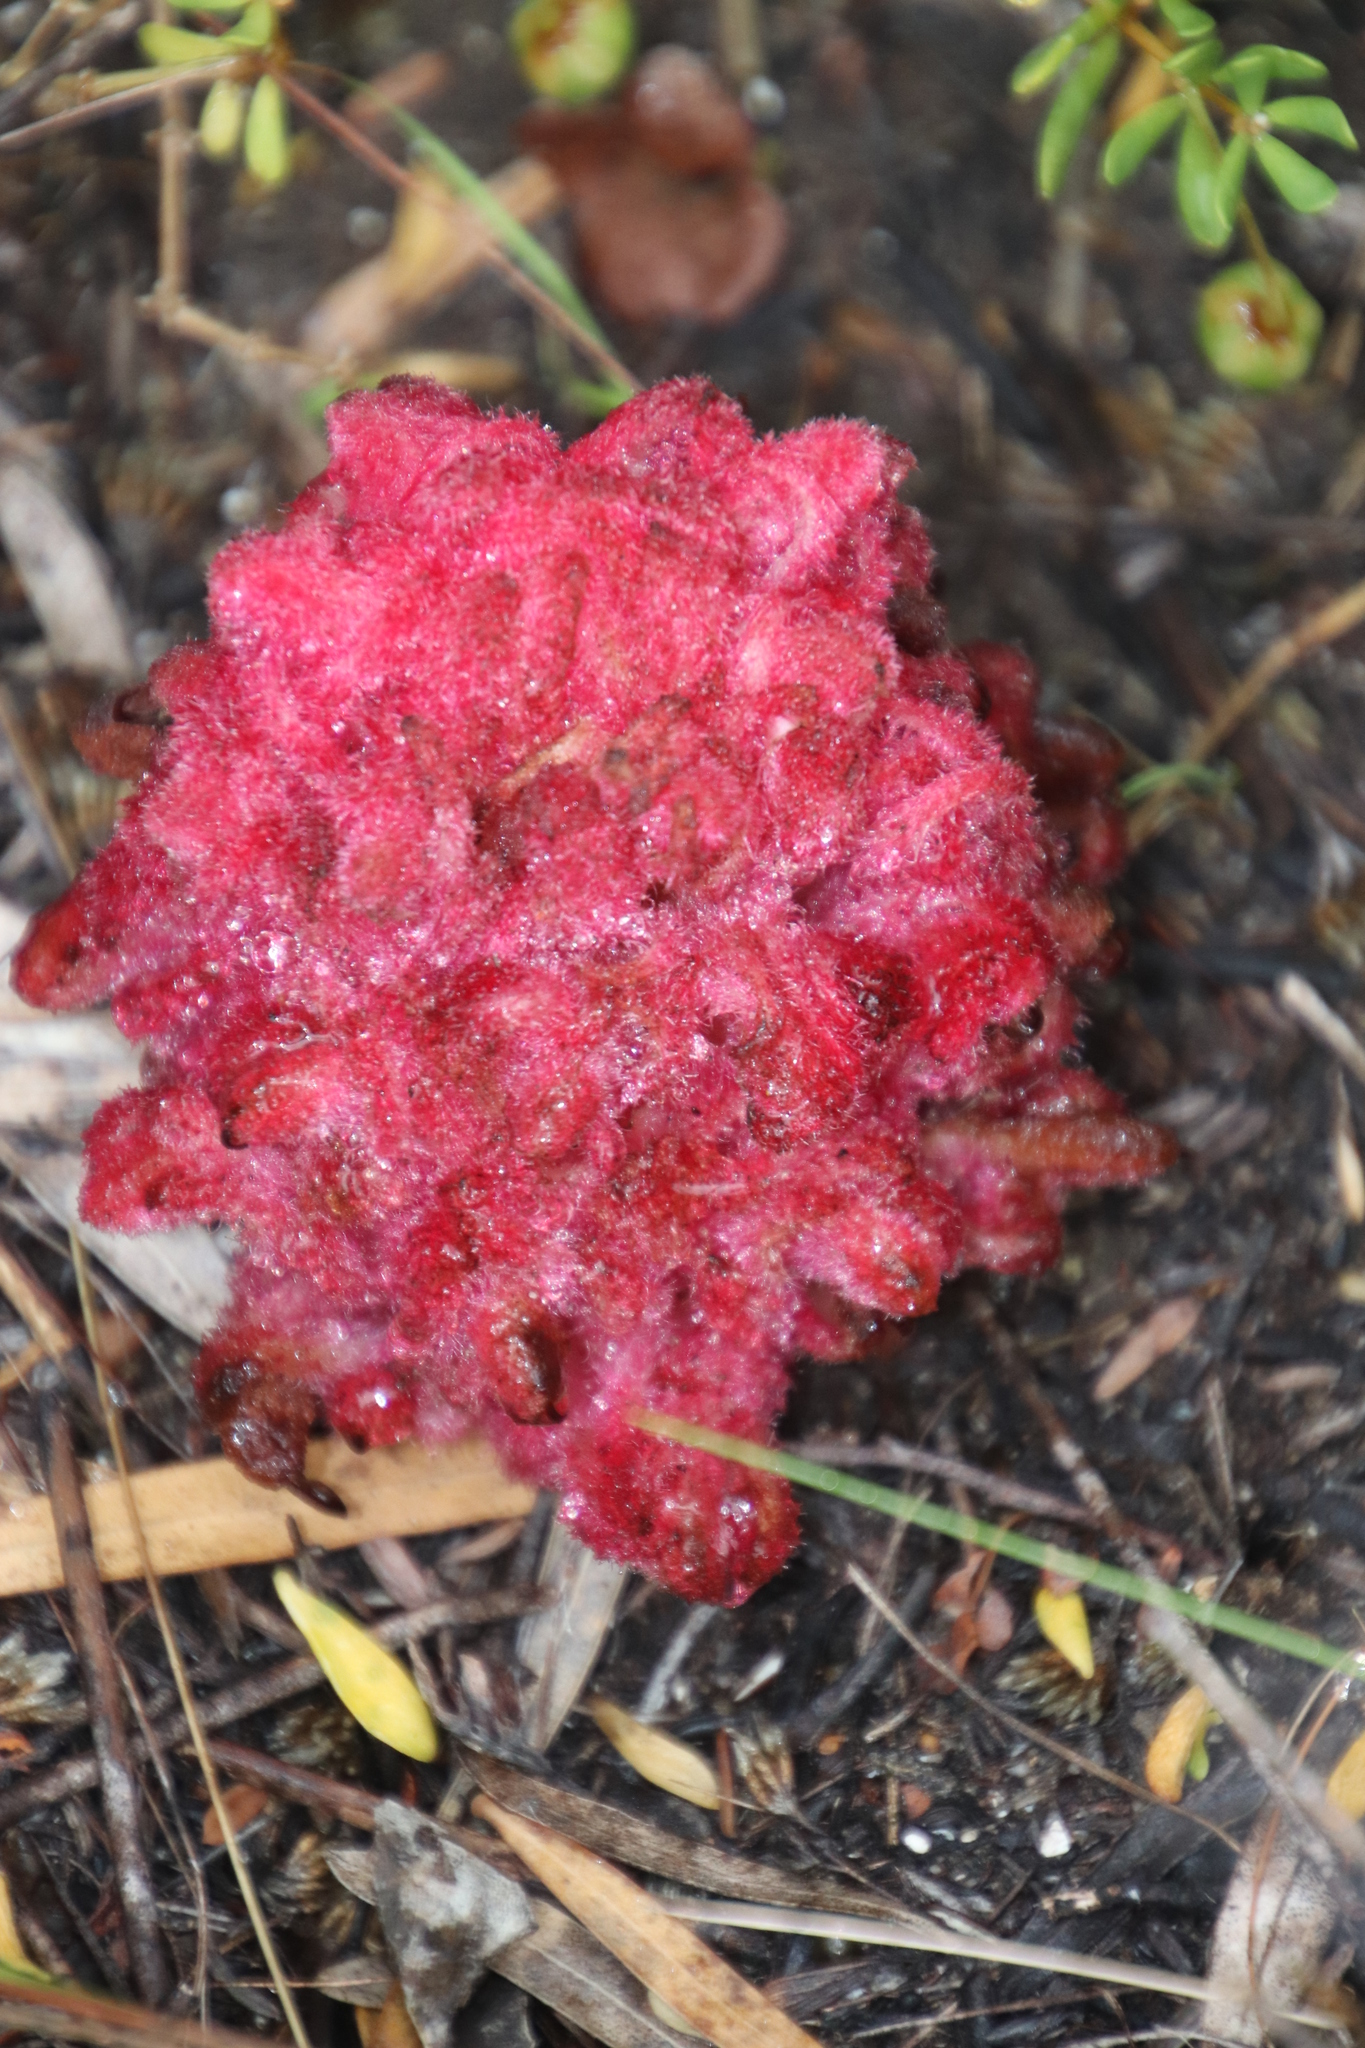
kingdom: Plantae
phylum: Tracheophyta
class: Magnoliopsida
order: Lamiales
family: Orobanchaceae
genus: Hyobanche
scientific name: Hyobanche sanguinea
